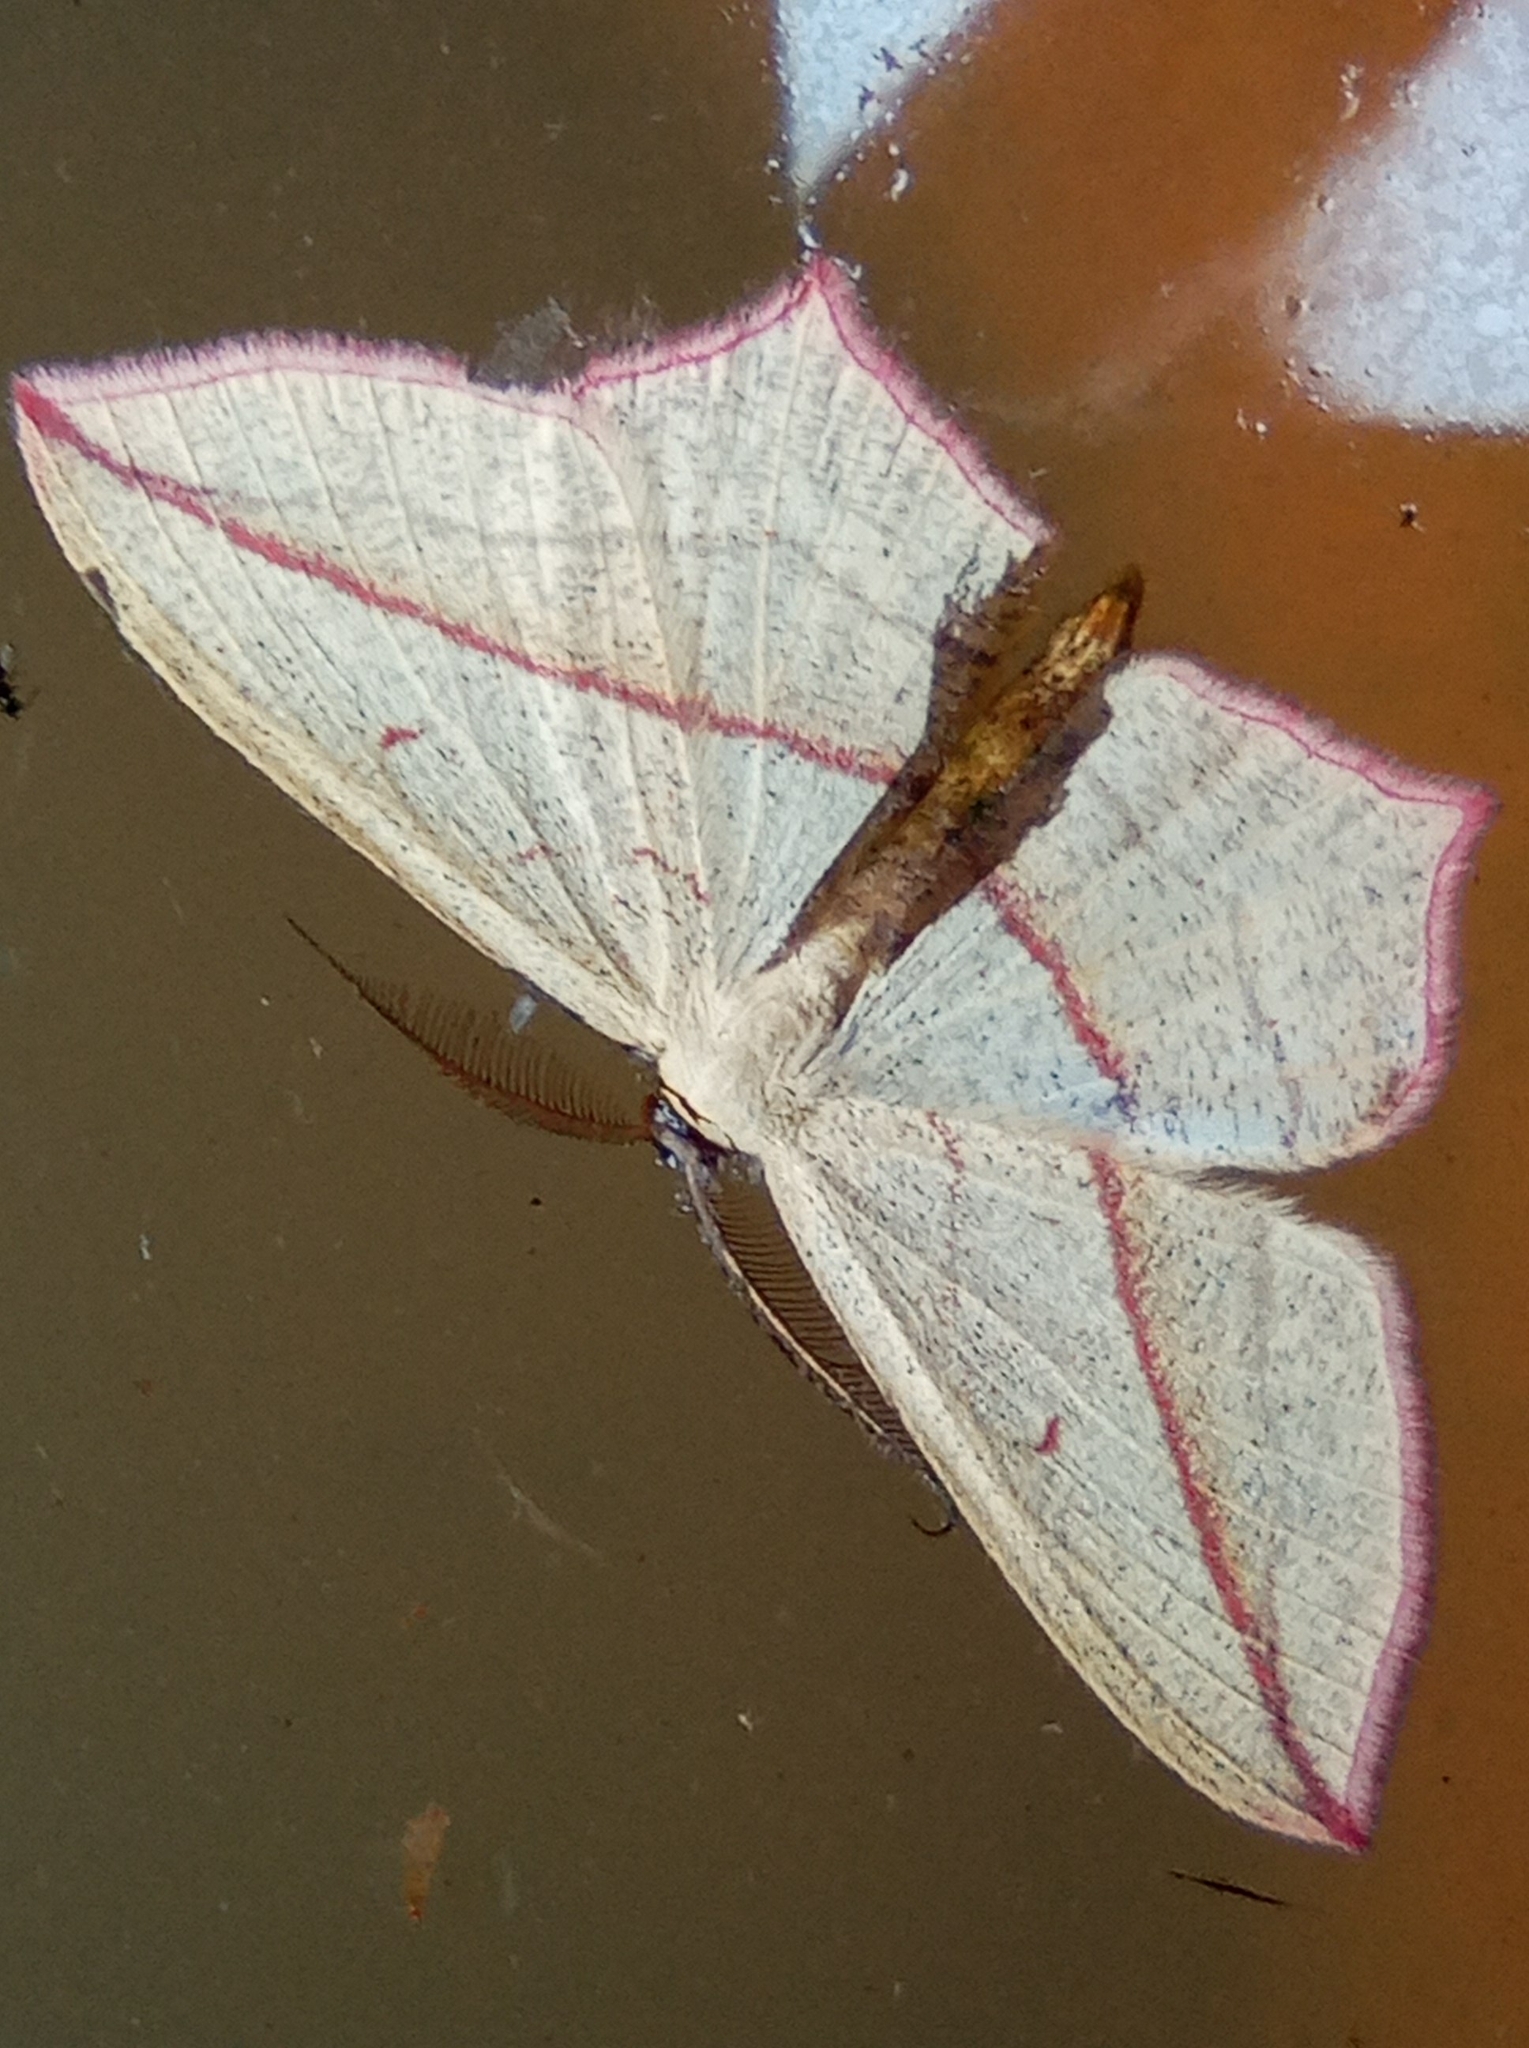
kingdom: Animalia
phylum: Arthropoda
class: Insecta
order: Lepidoptera
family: Geometridae
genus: Timandra
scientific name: Timandra comae
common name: Blood-vein
